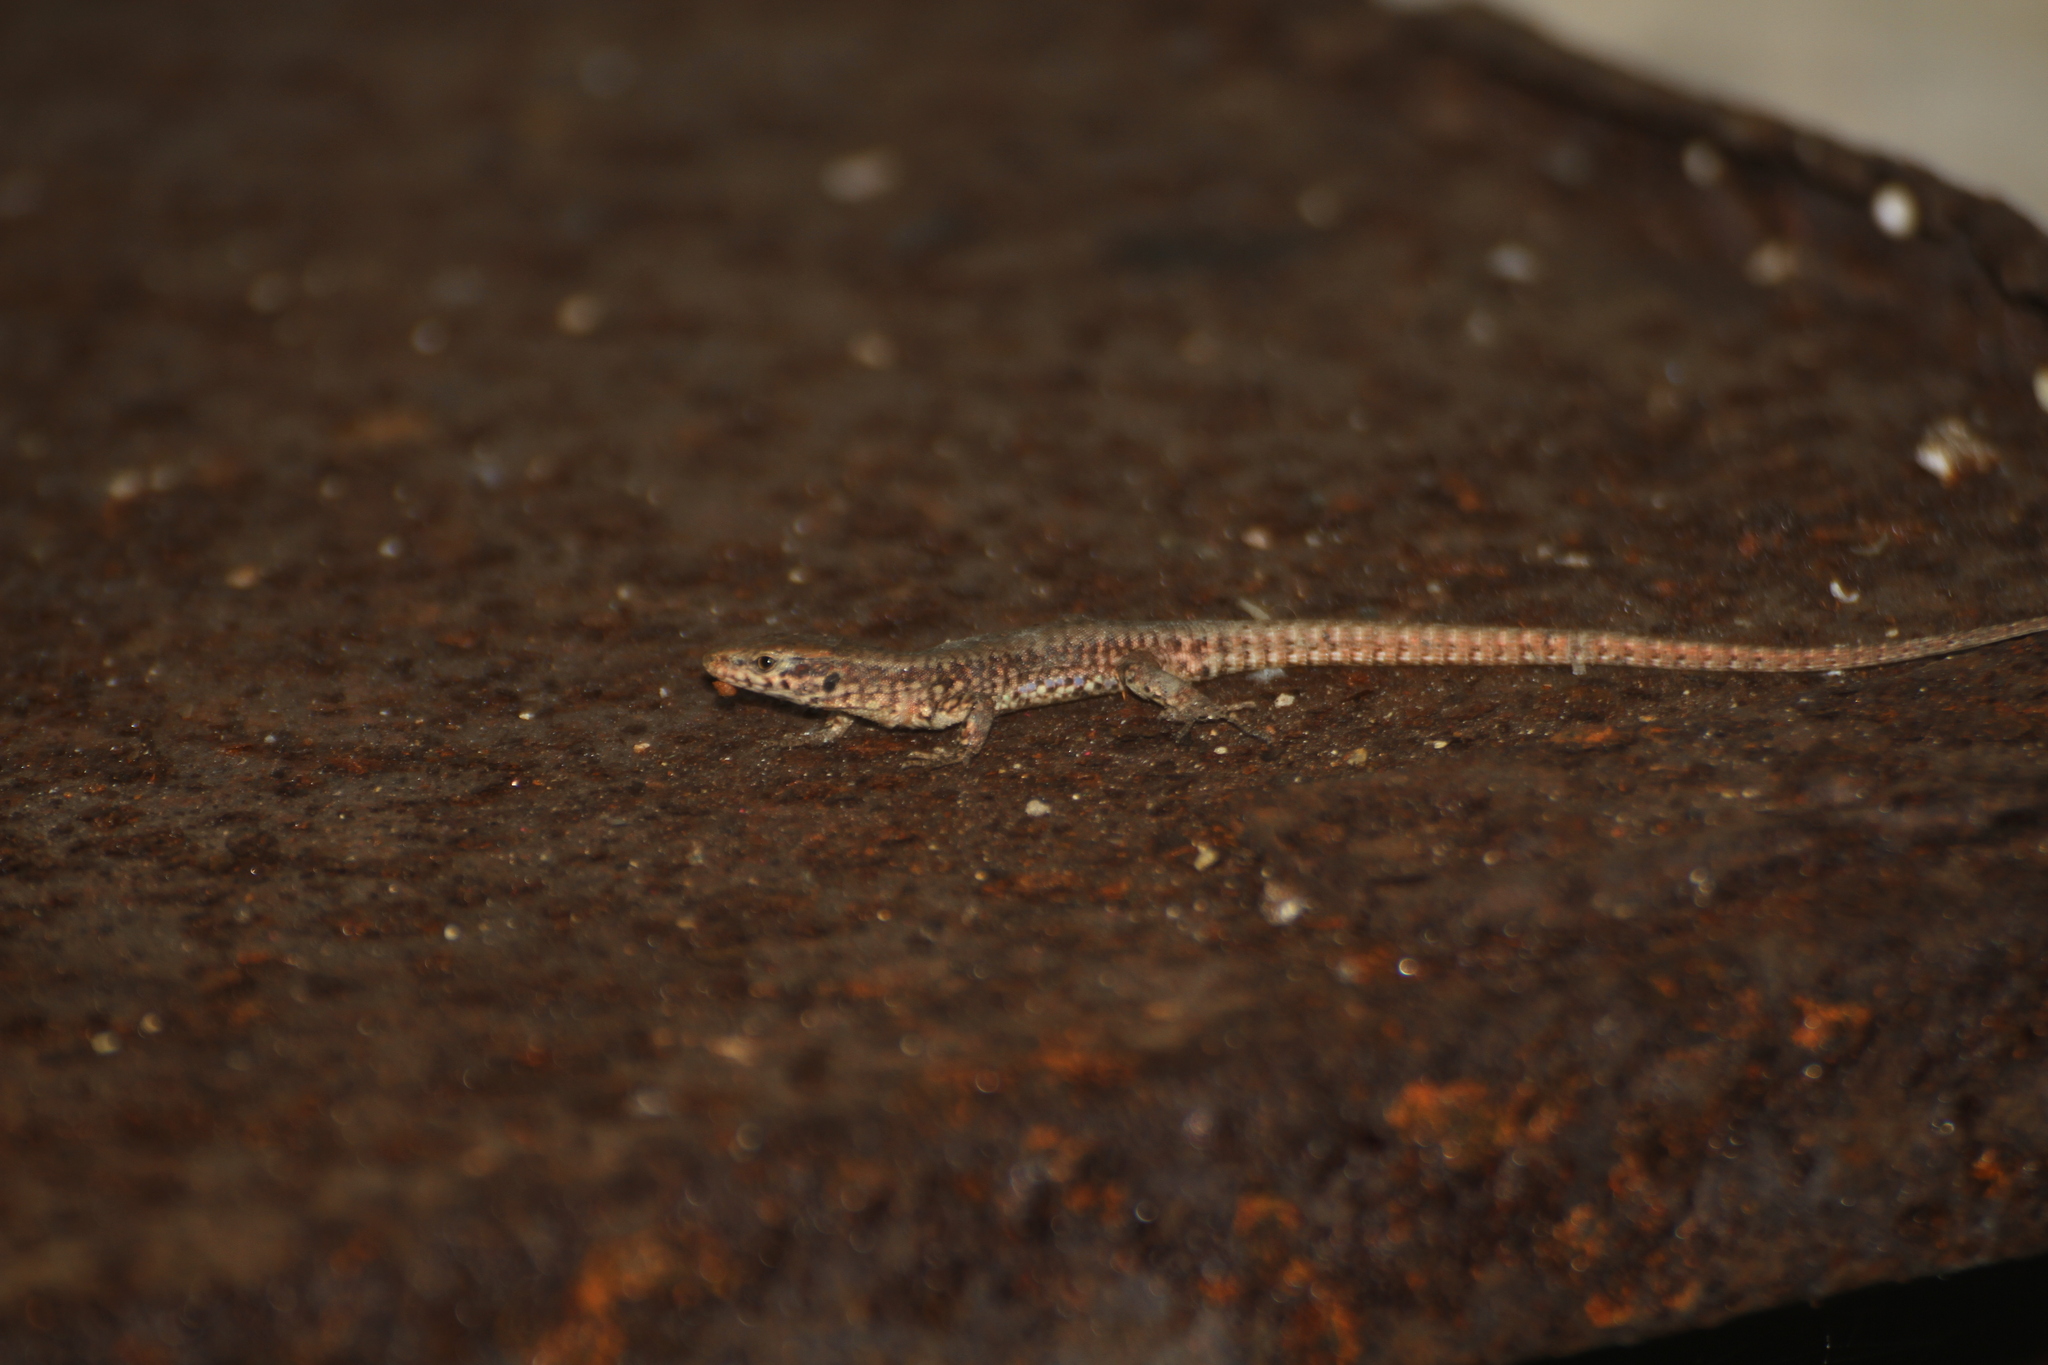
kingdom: Animalia
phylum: Chordata
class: Squamata
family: Lacertidae
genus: Podarcis
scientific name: Podarcis muralis
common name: Common wall lizard
